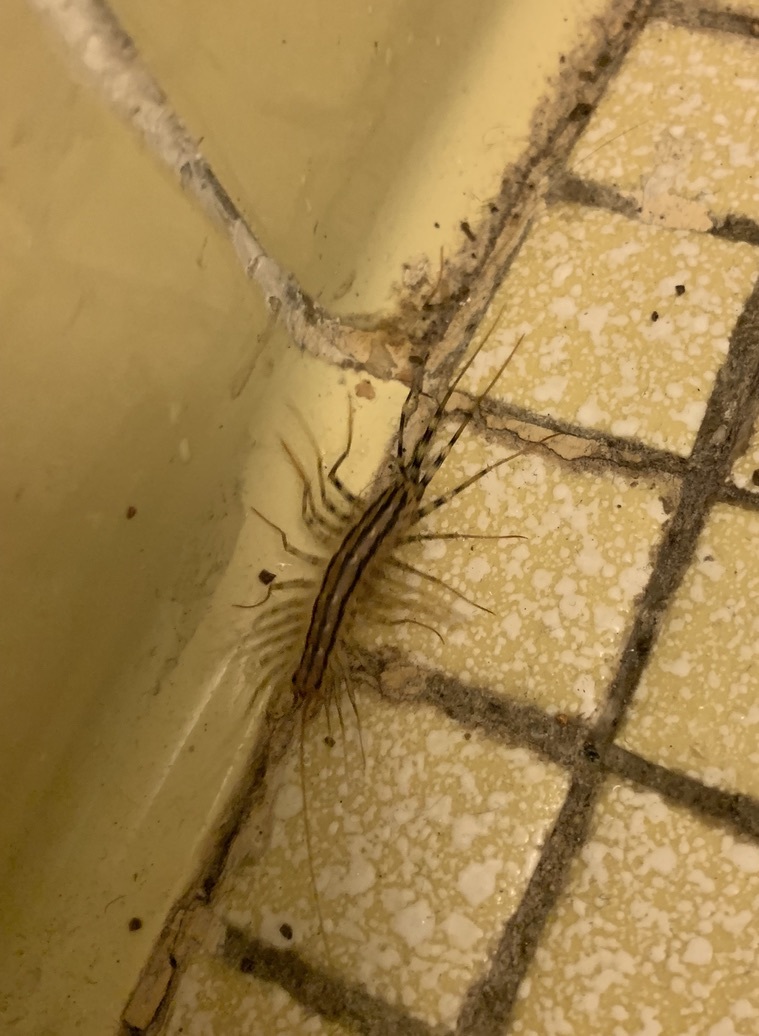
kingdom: Animalia
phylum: Arthropoda
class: Chilopoda
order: Scutigeromorpha
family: Scutigeridae
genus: Scutigera
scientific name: Scutigera coleoptrata
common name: House centipede
